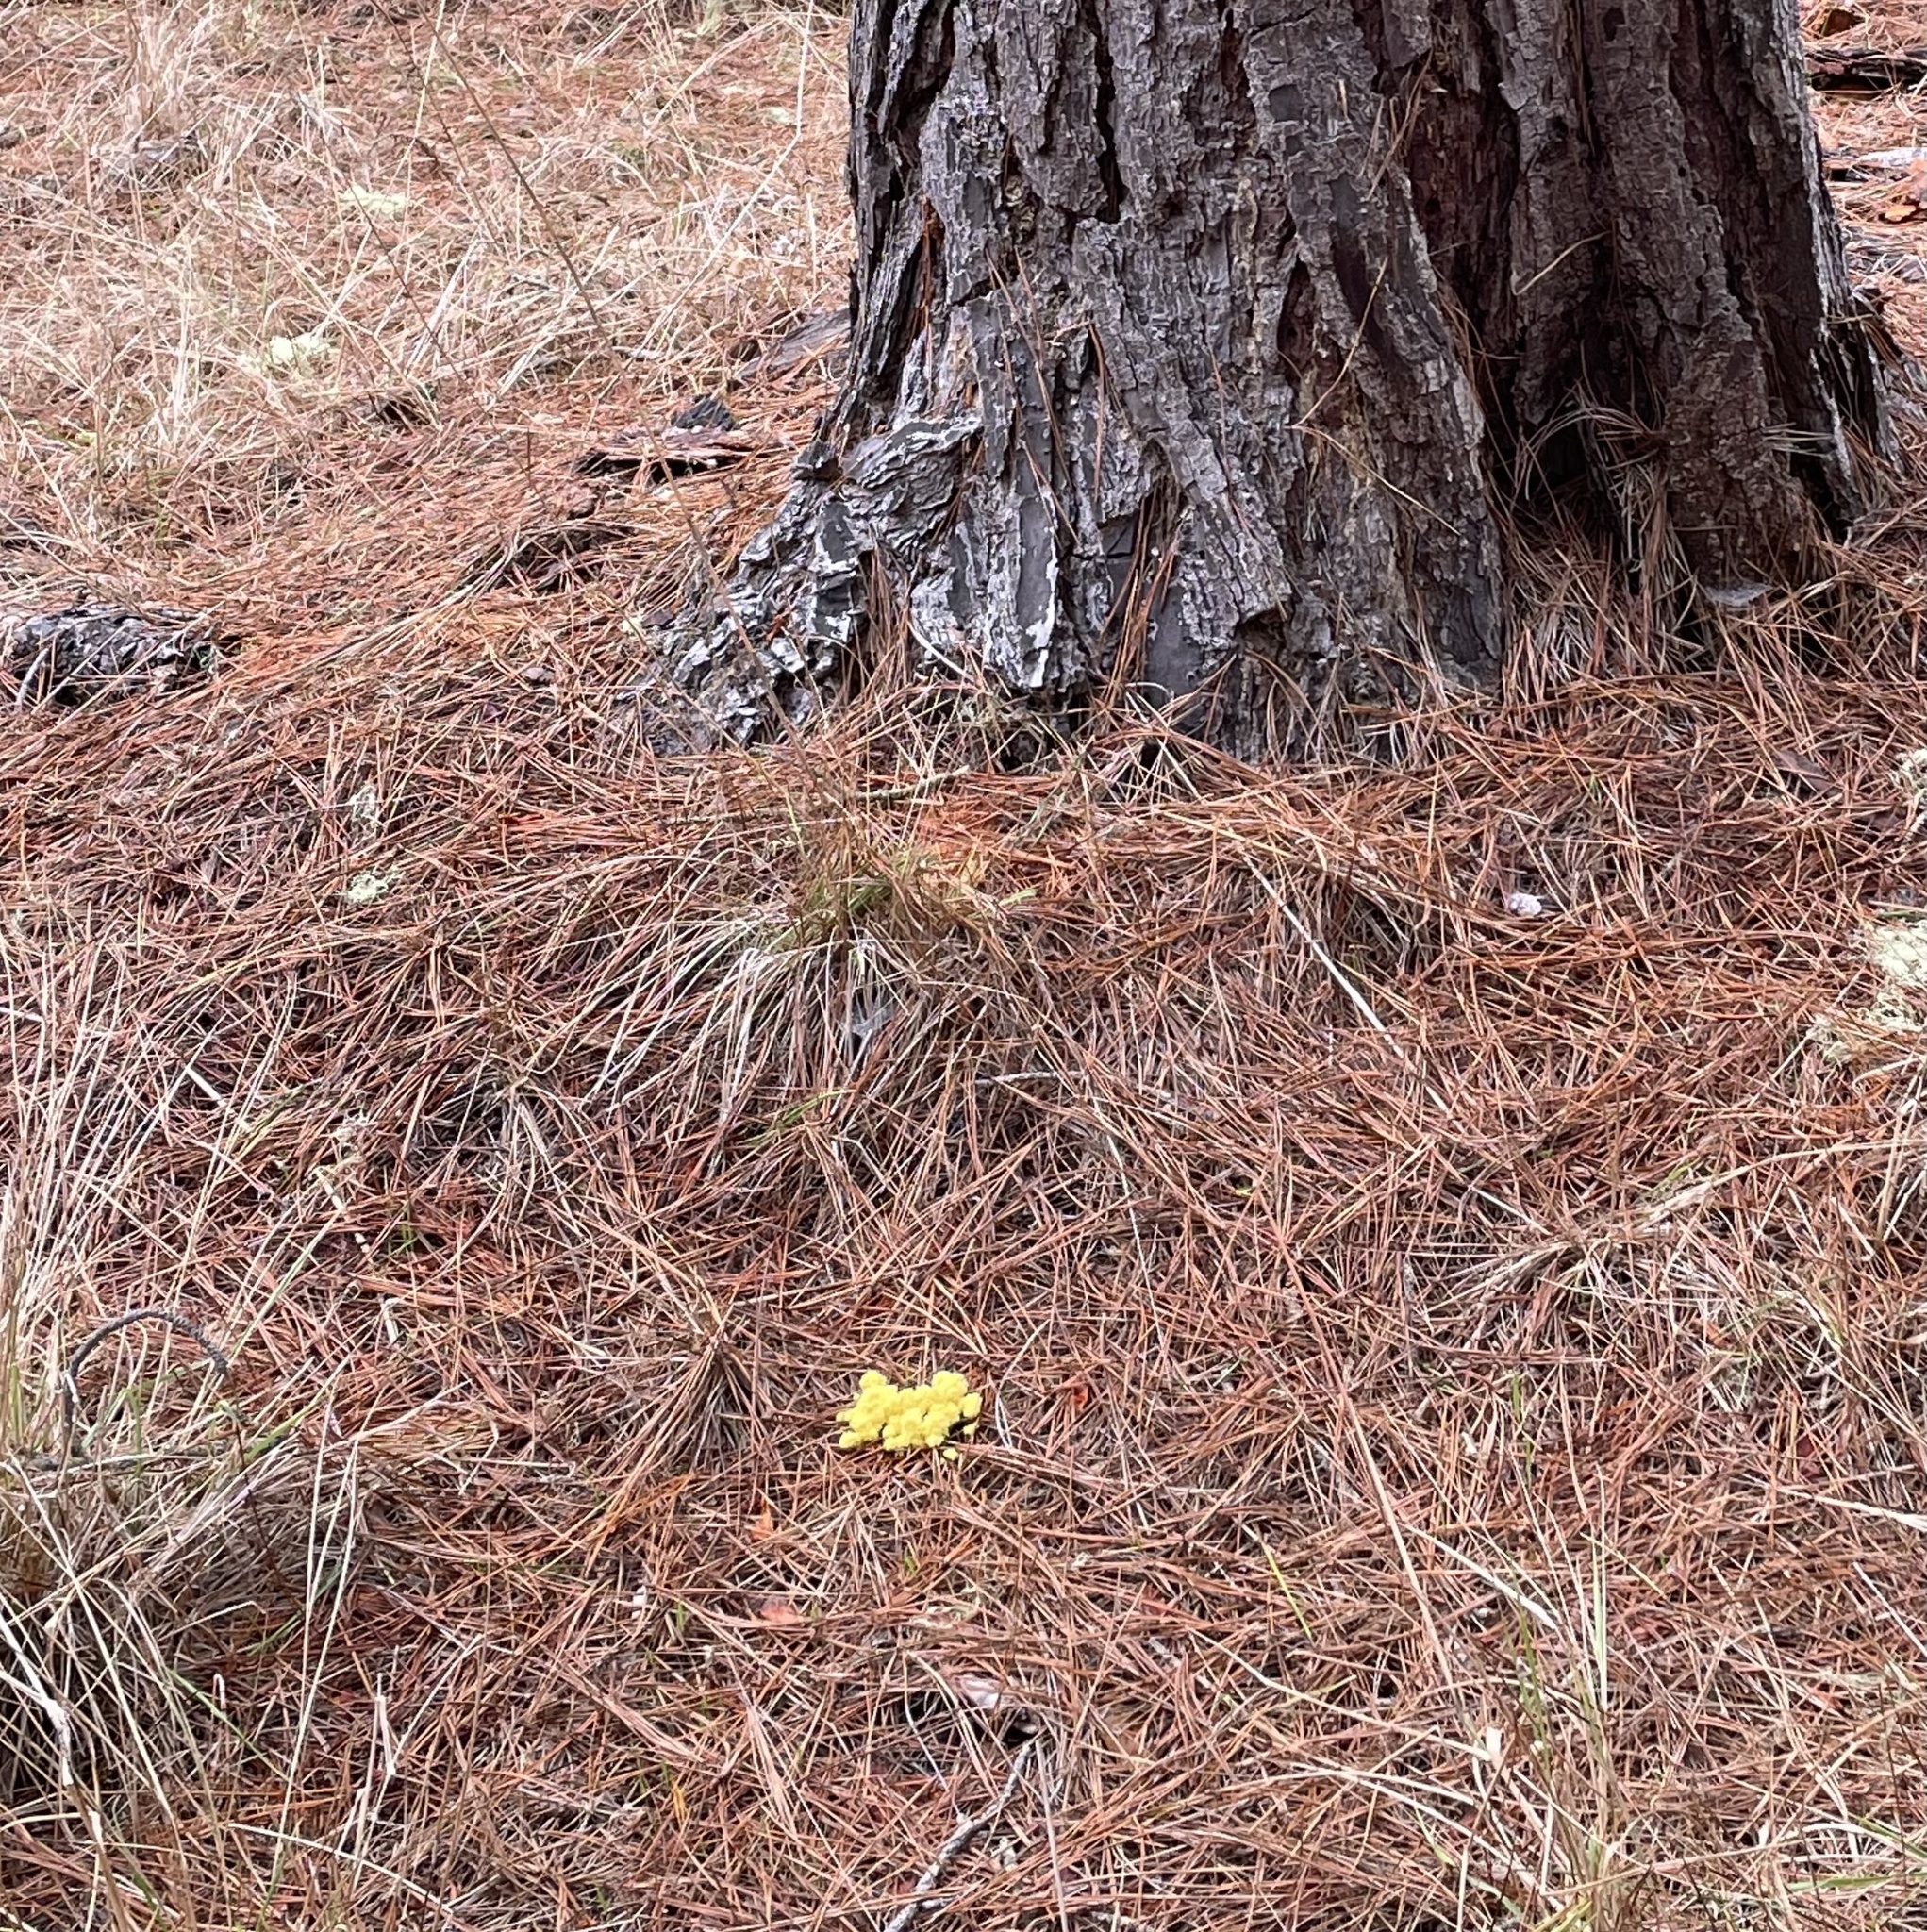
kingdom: Protozoa
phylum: Mycetozoa
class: Myxomycetes
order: Physarales
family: Physaraceae
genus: Fuligo
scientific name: Fuligo septica
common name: Dog vomit slime mold
